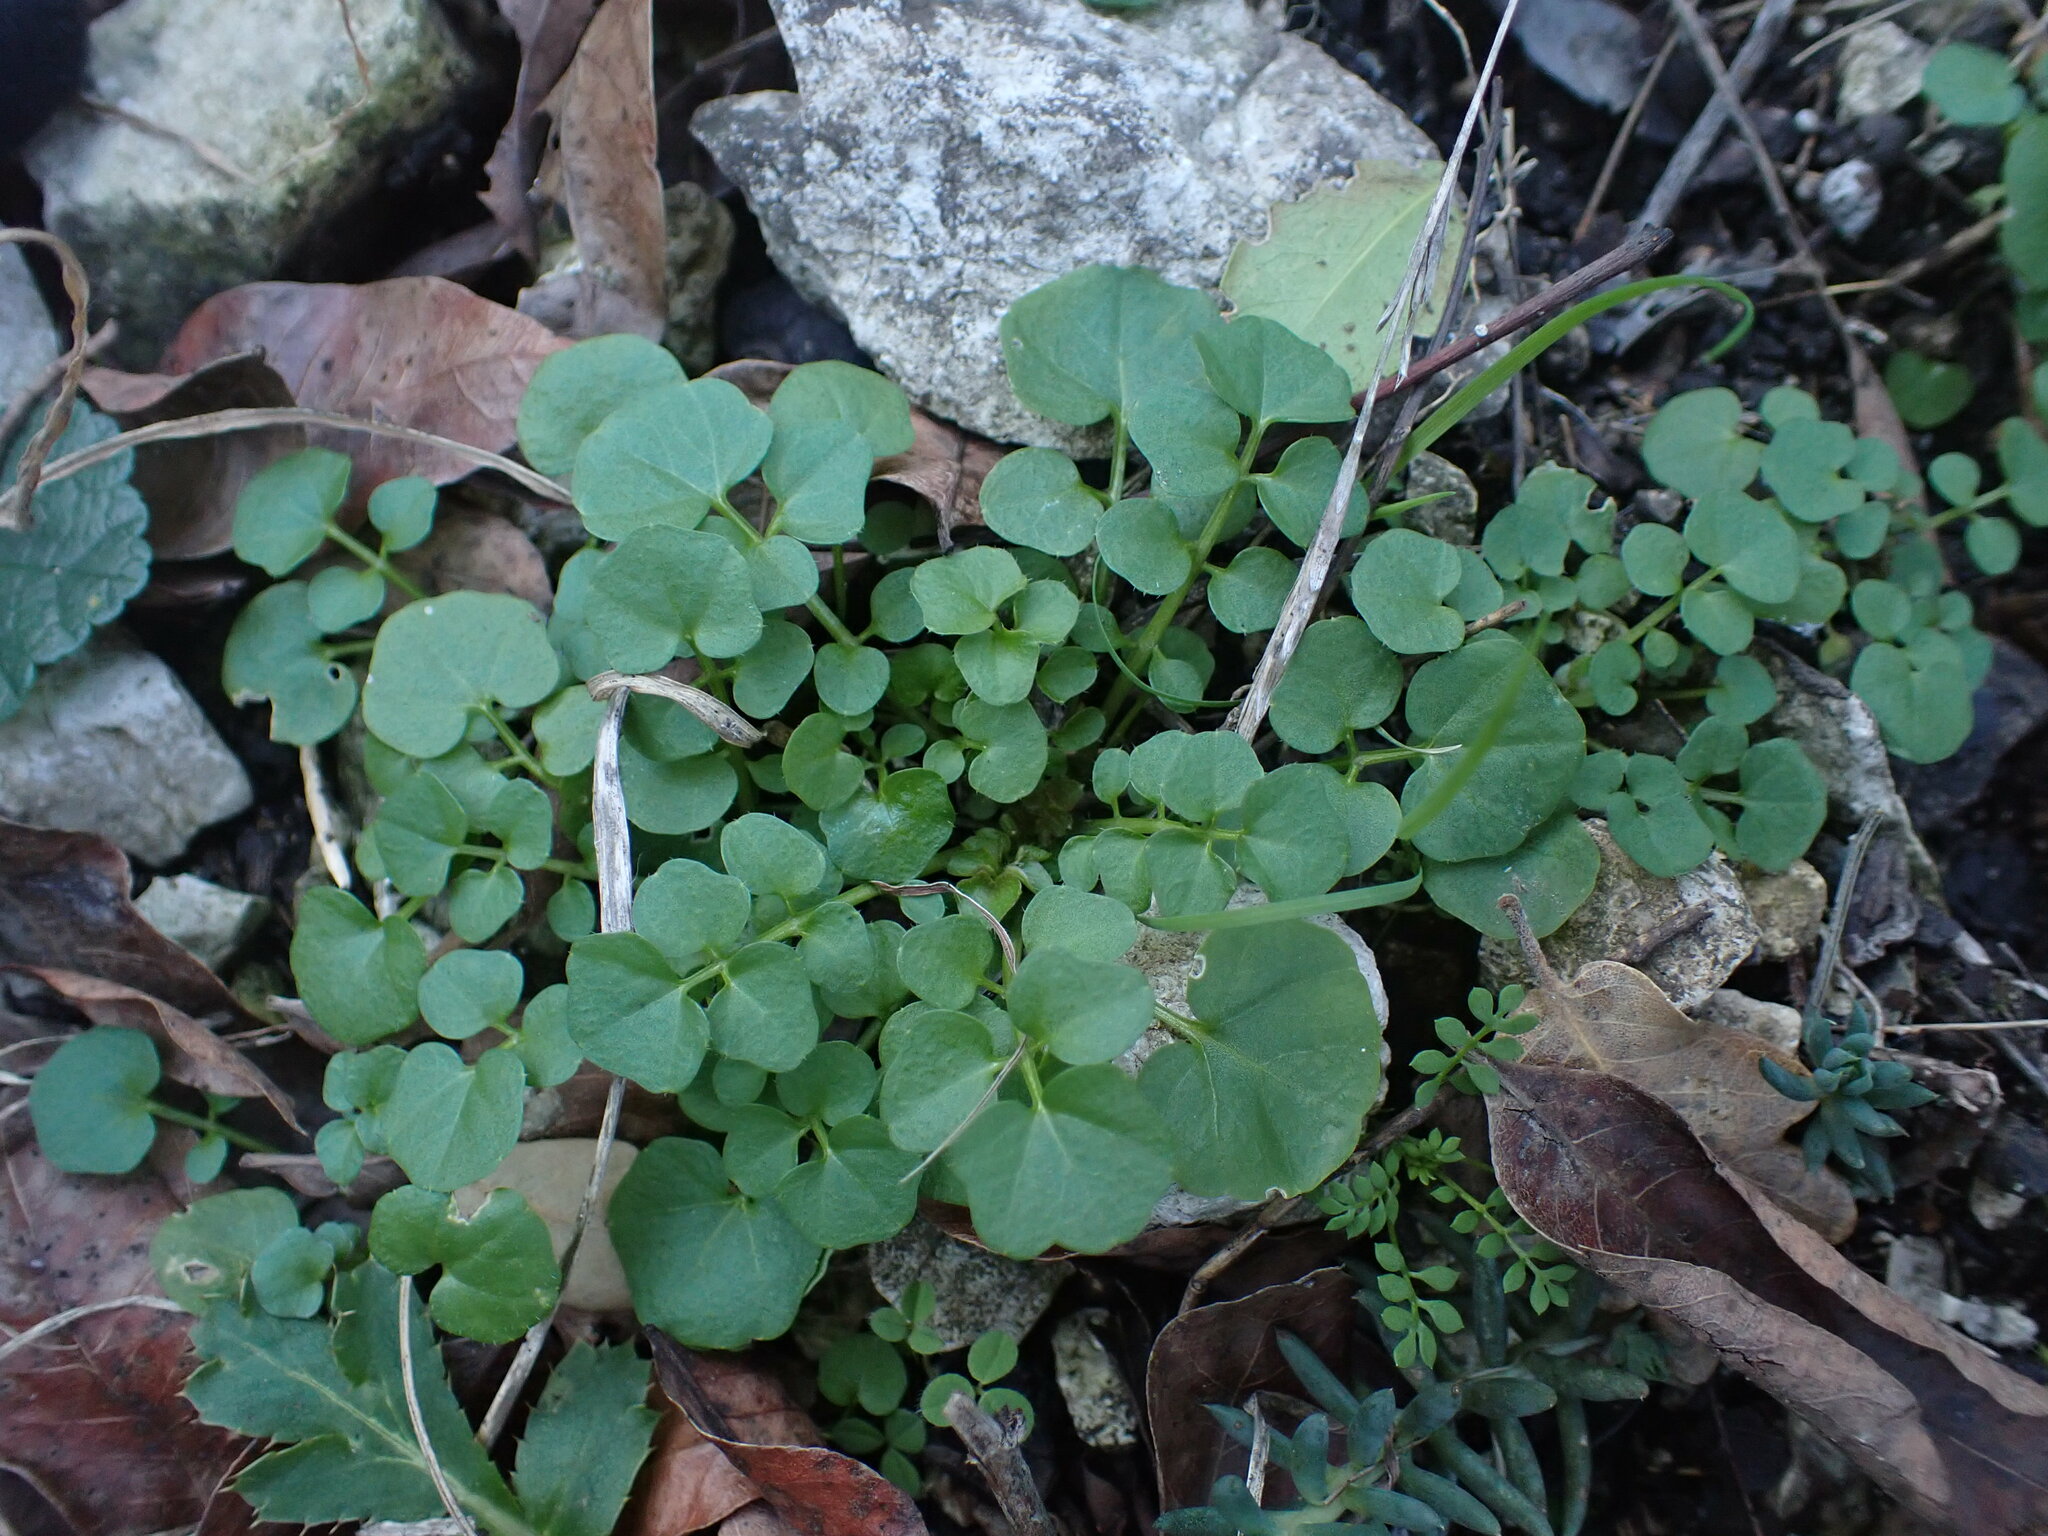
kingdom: Plantae
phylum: Tracheophyta
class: Magnoliopsida
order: Brassicales
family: Brassicaceae
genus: Cardamine
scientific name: Cardamine hirsuta
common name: Hairy bittercress
